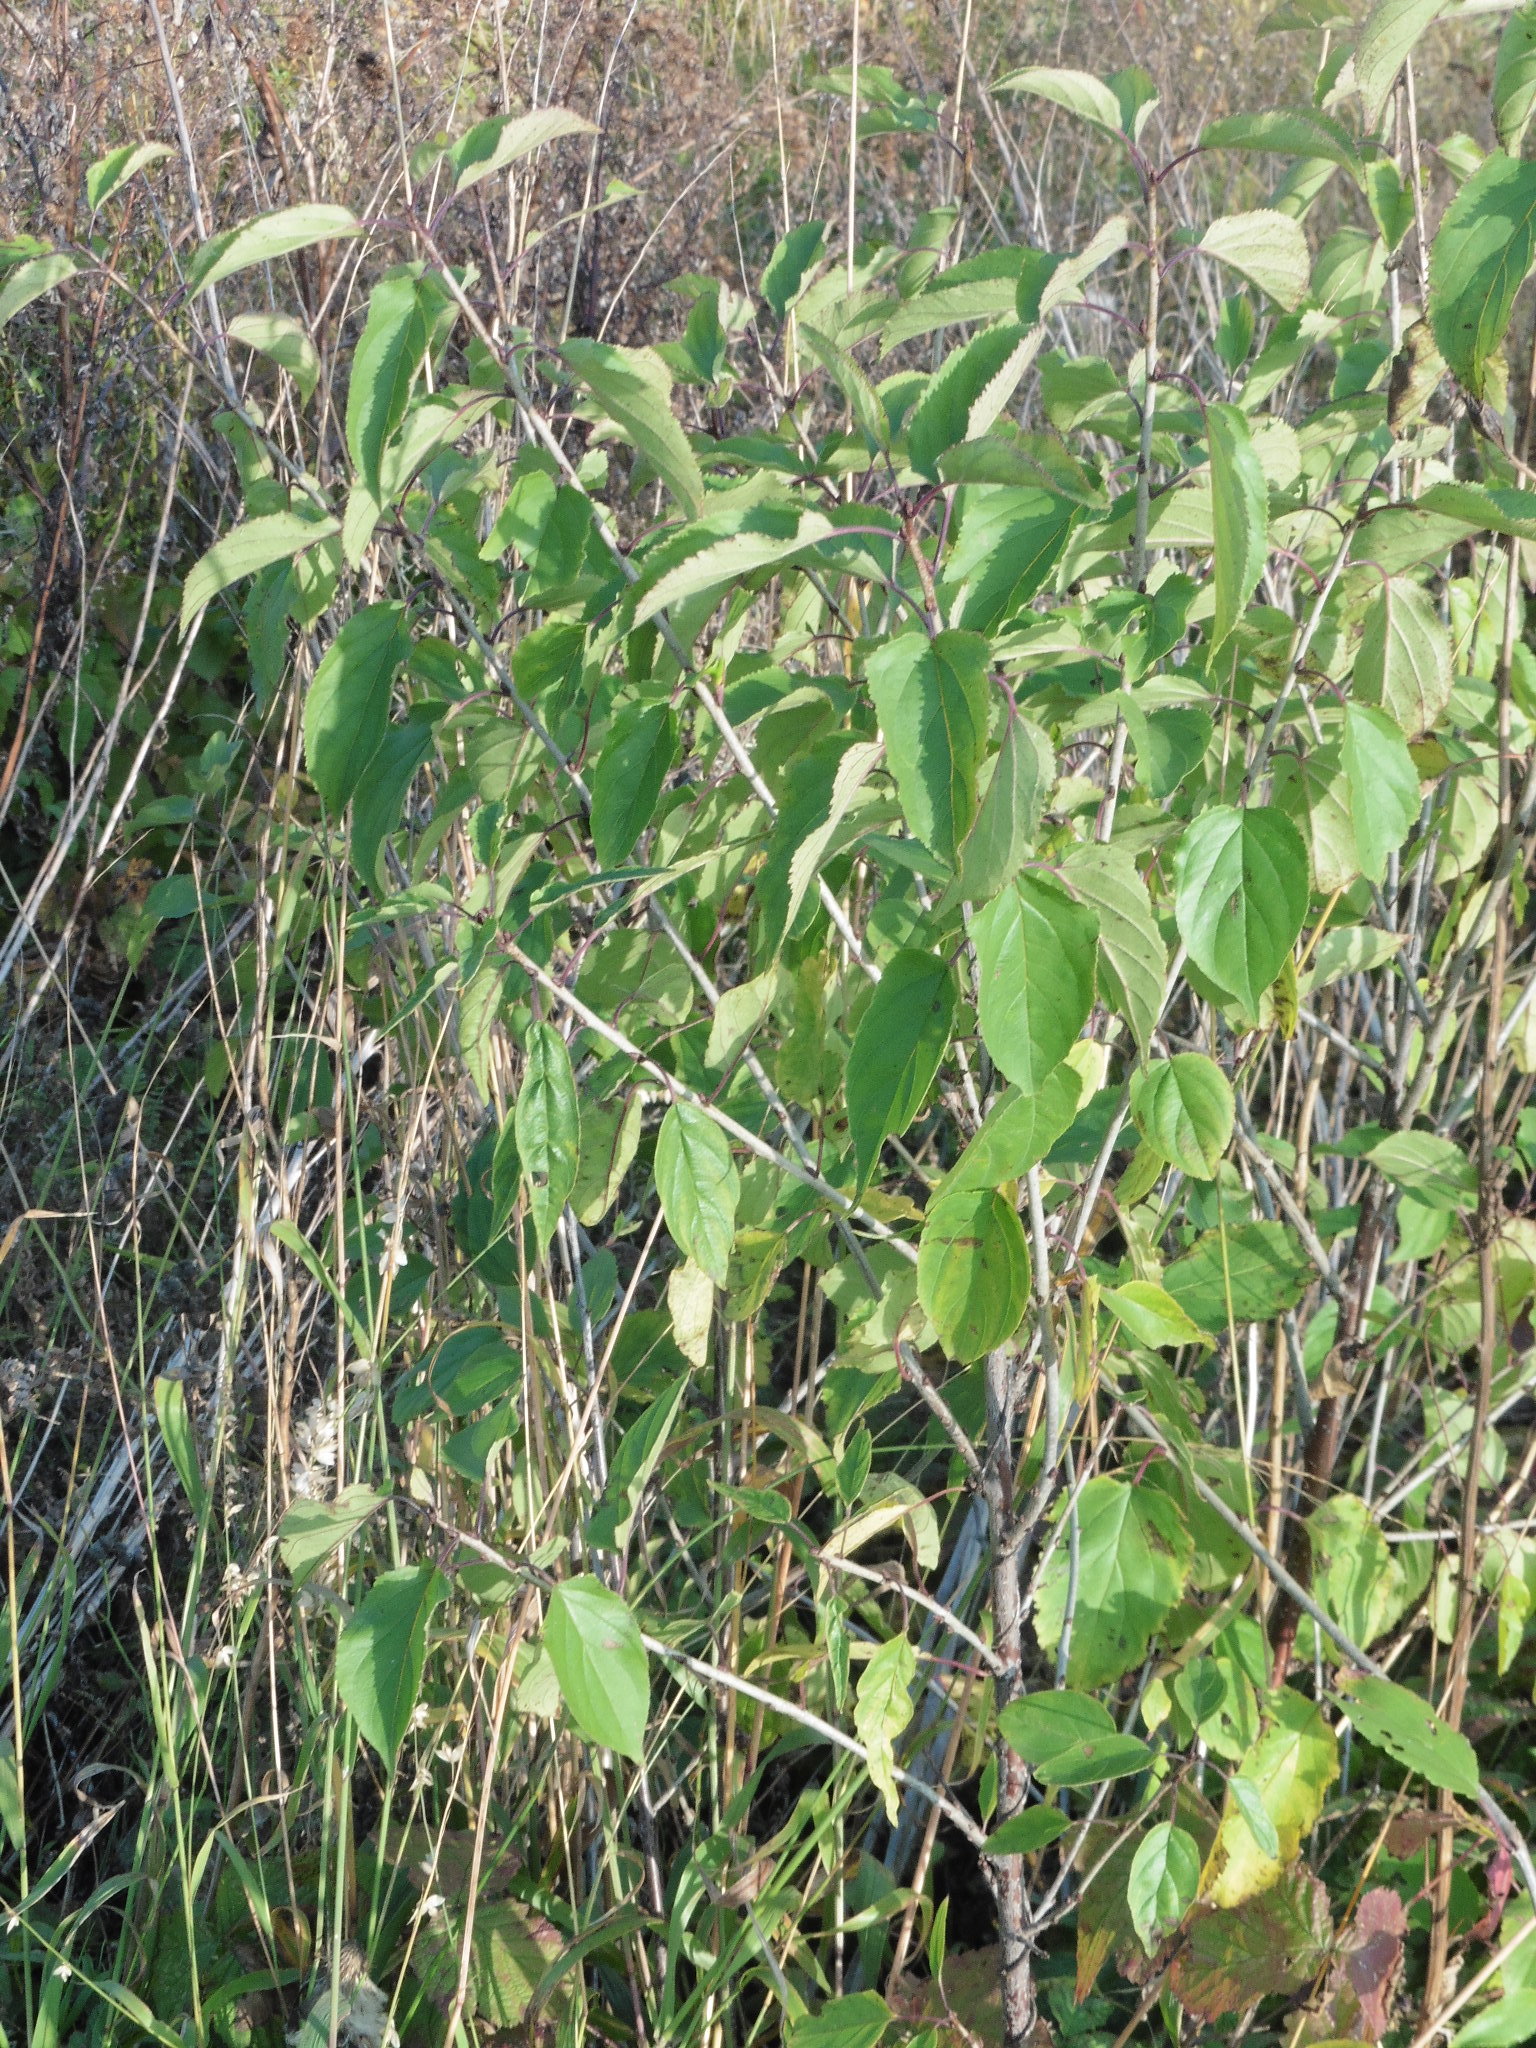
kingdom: Plantae
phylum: Tracheophyta
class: Magnoliopsida
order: Rosales
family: Rhamnaceae
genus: Rhamnus
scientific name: Rhamnus cathartica
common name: Common buckthorn
